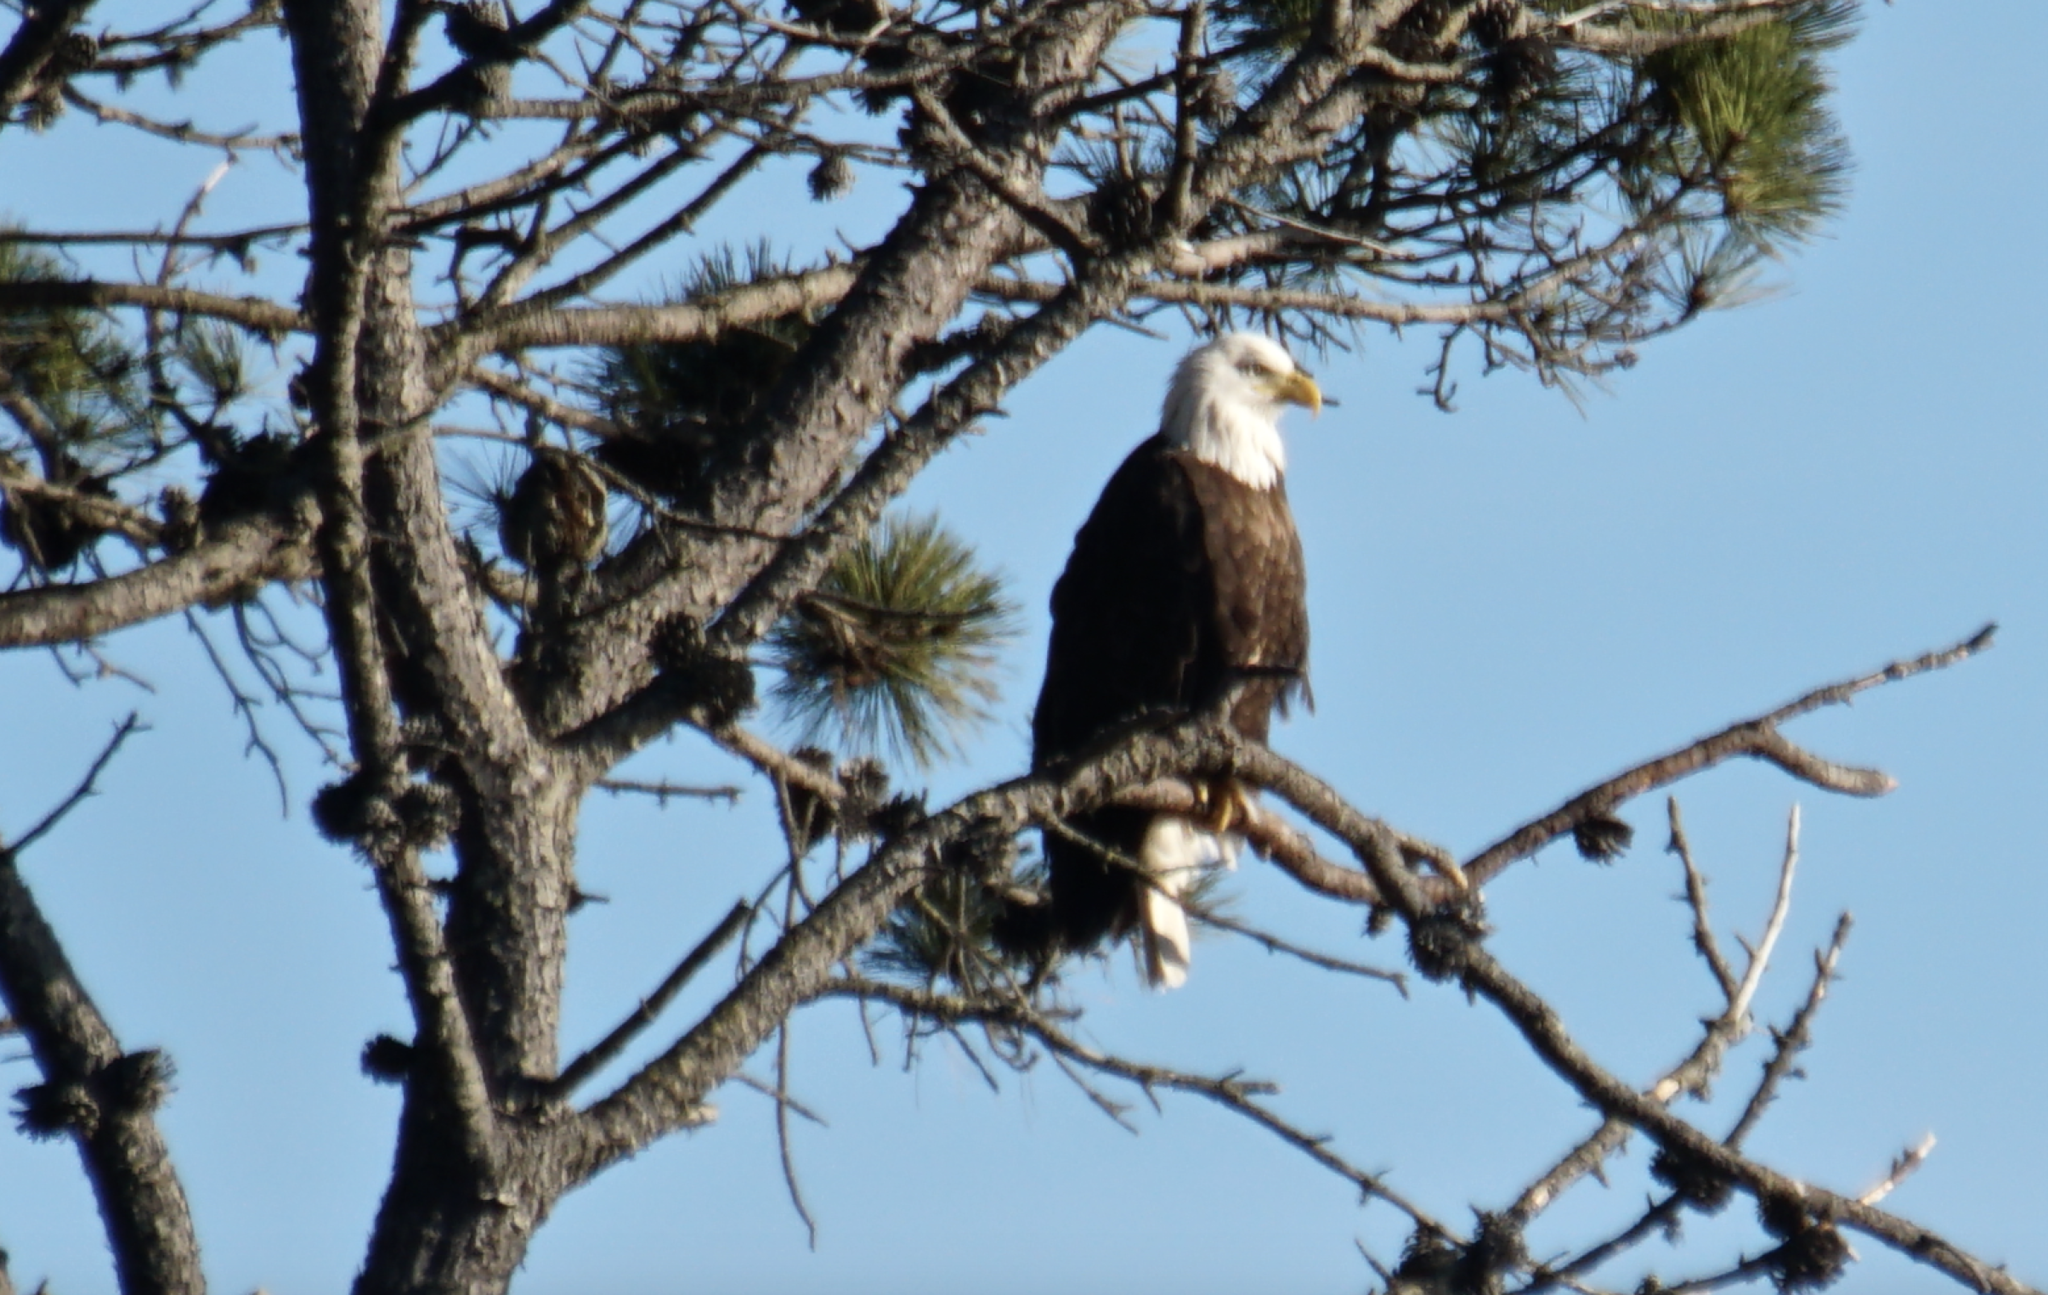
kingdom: Animalia
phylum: Chordata
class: Aves
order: Accipitriformes
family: Accipitridae
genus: Haliaeetus
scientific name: Haliaeetus leucocephalus
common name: Bald eagle
